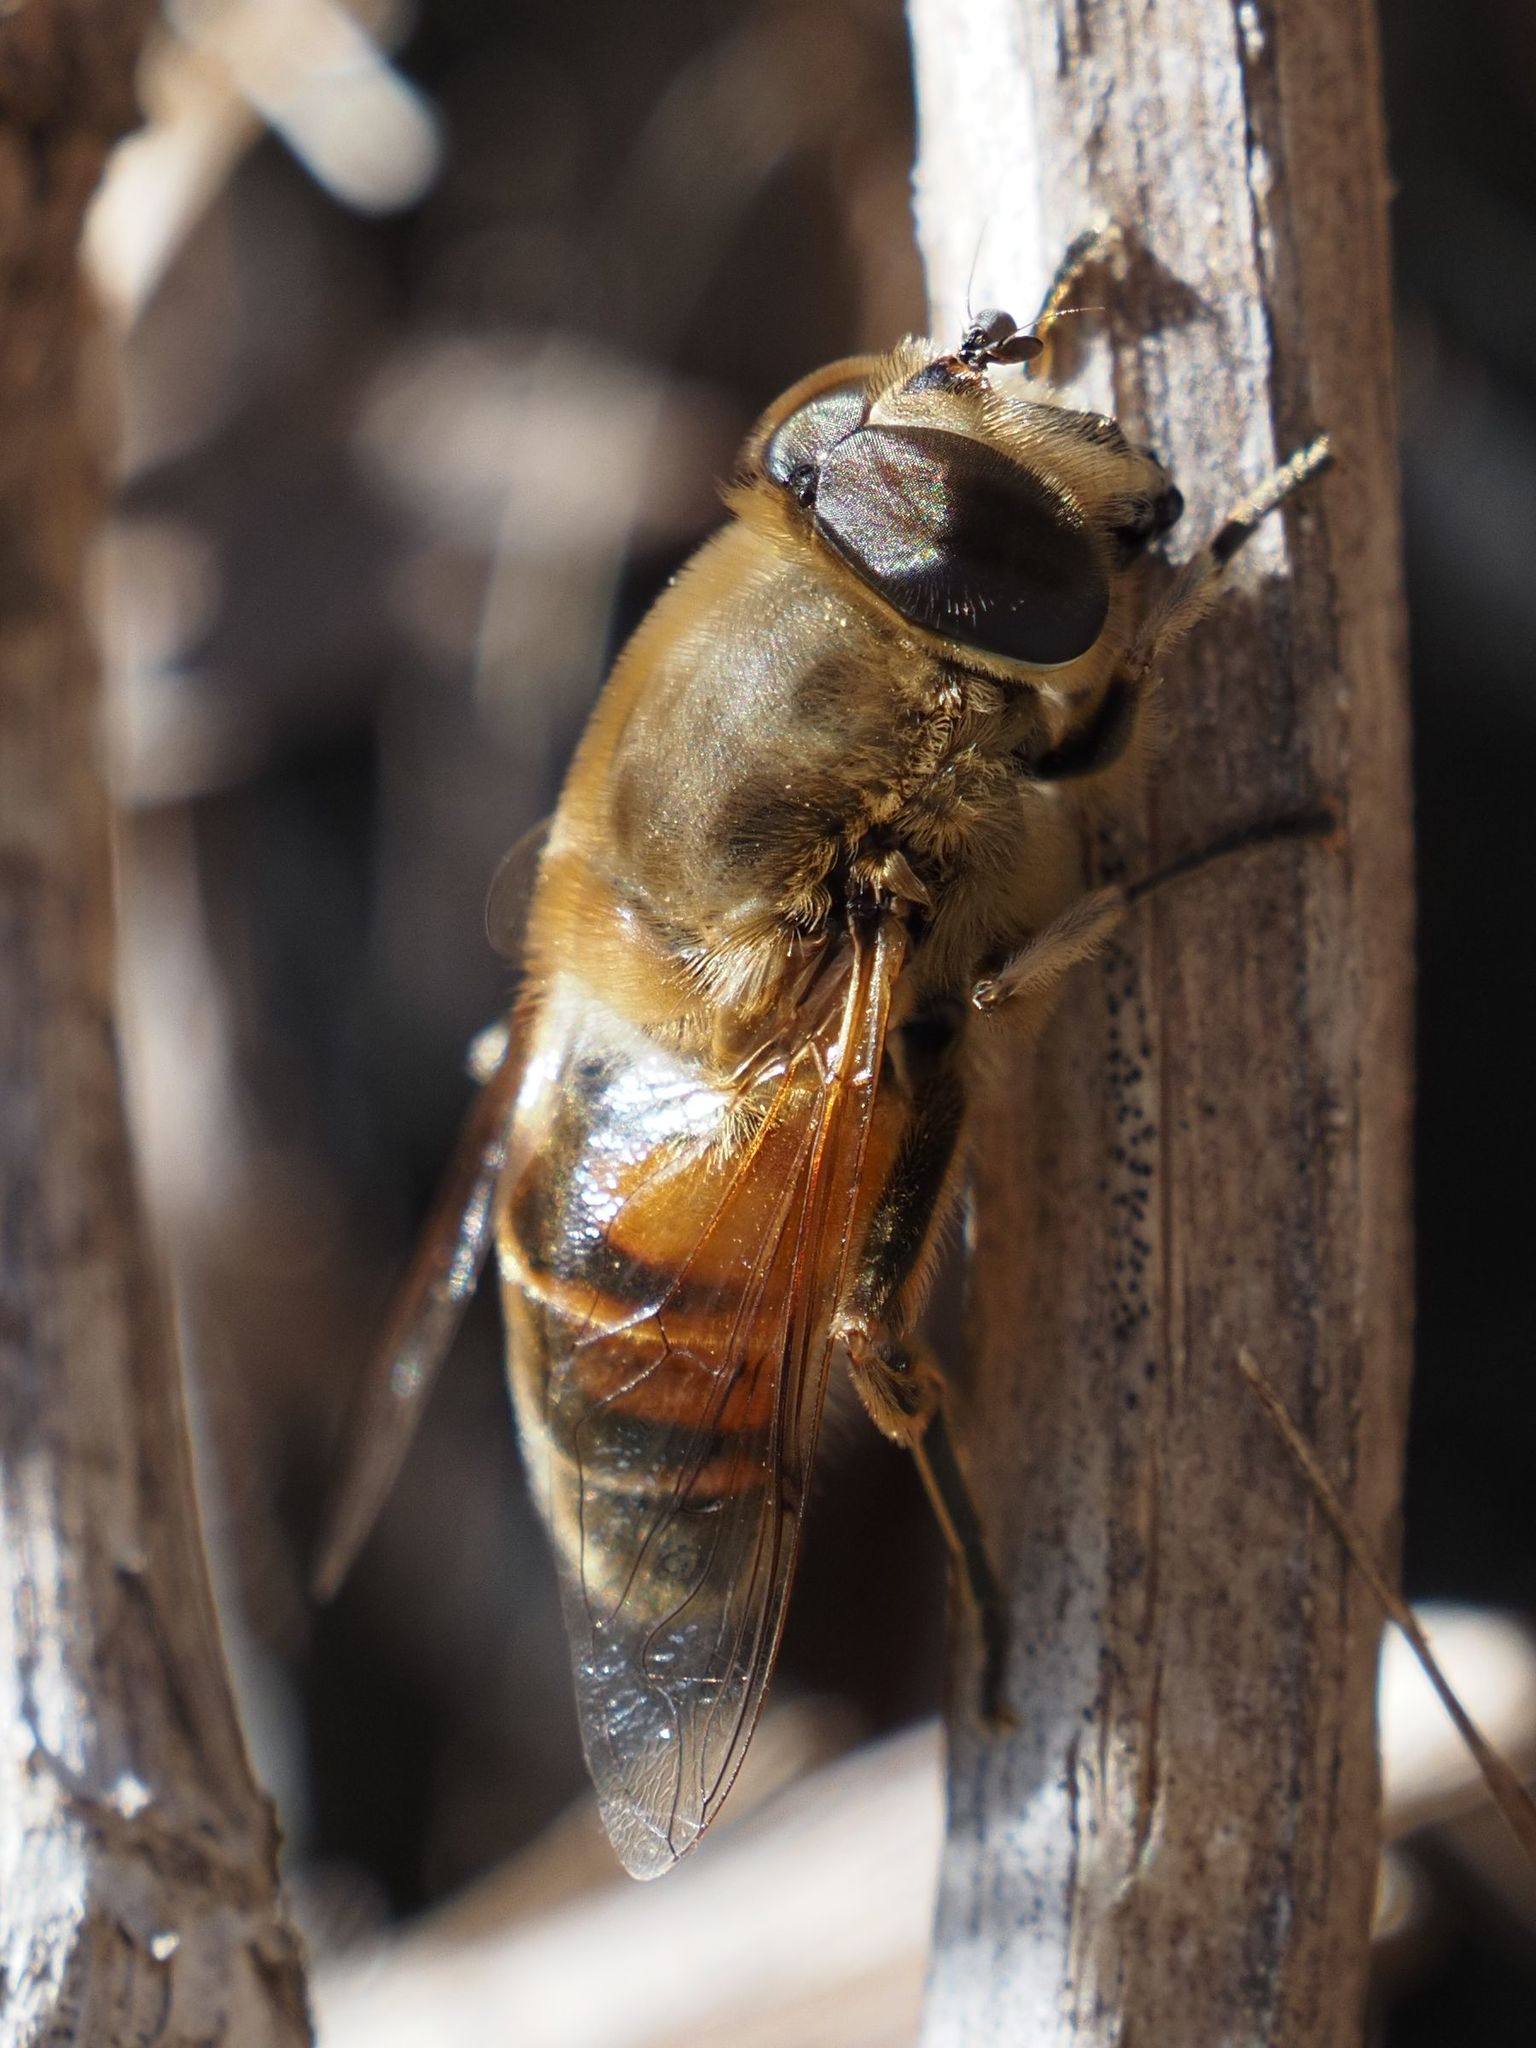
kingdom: Animalia
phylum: Arthropoda
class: Insecta
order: Diptera
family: Syrphidae
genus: Eristalis
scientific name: Eristalis tenax
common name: Drone fly
